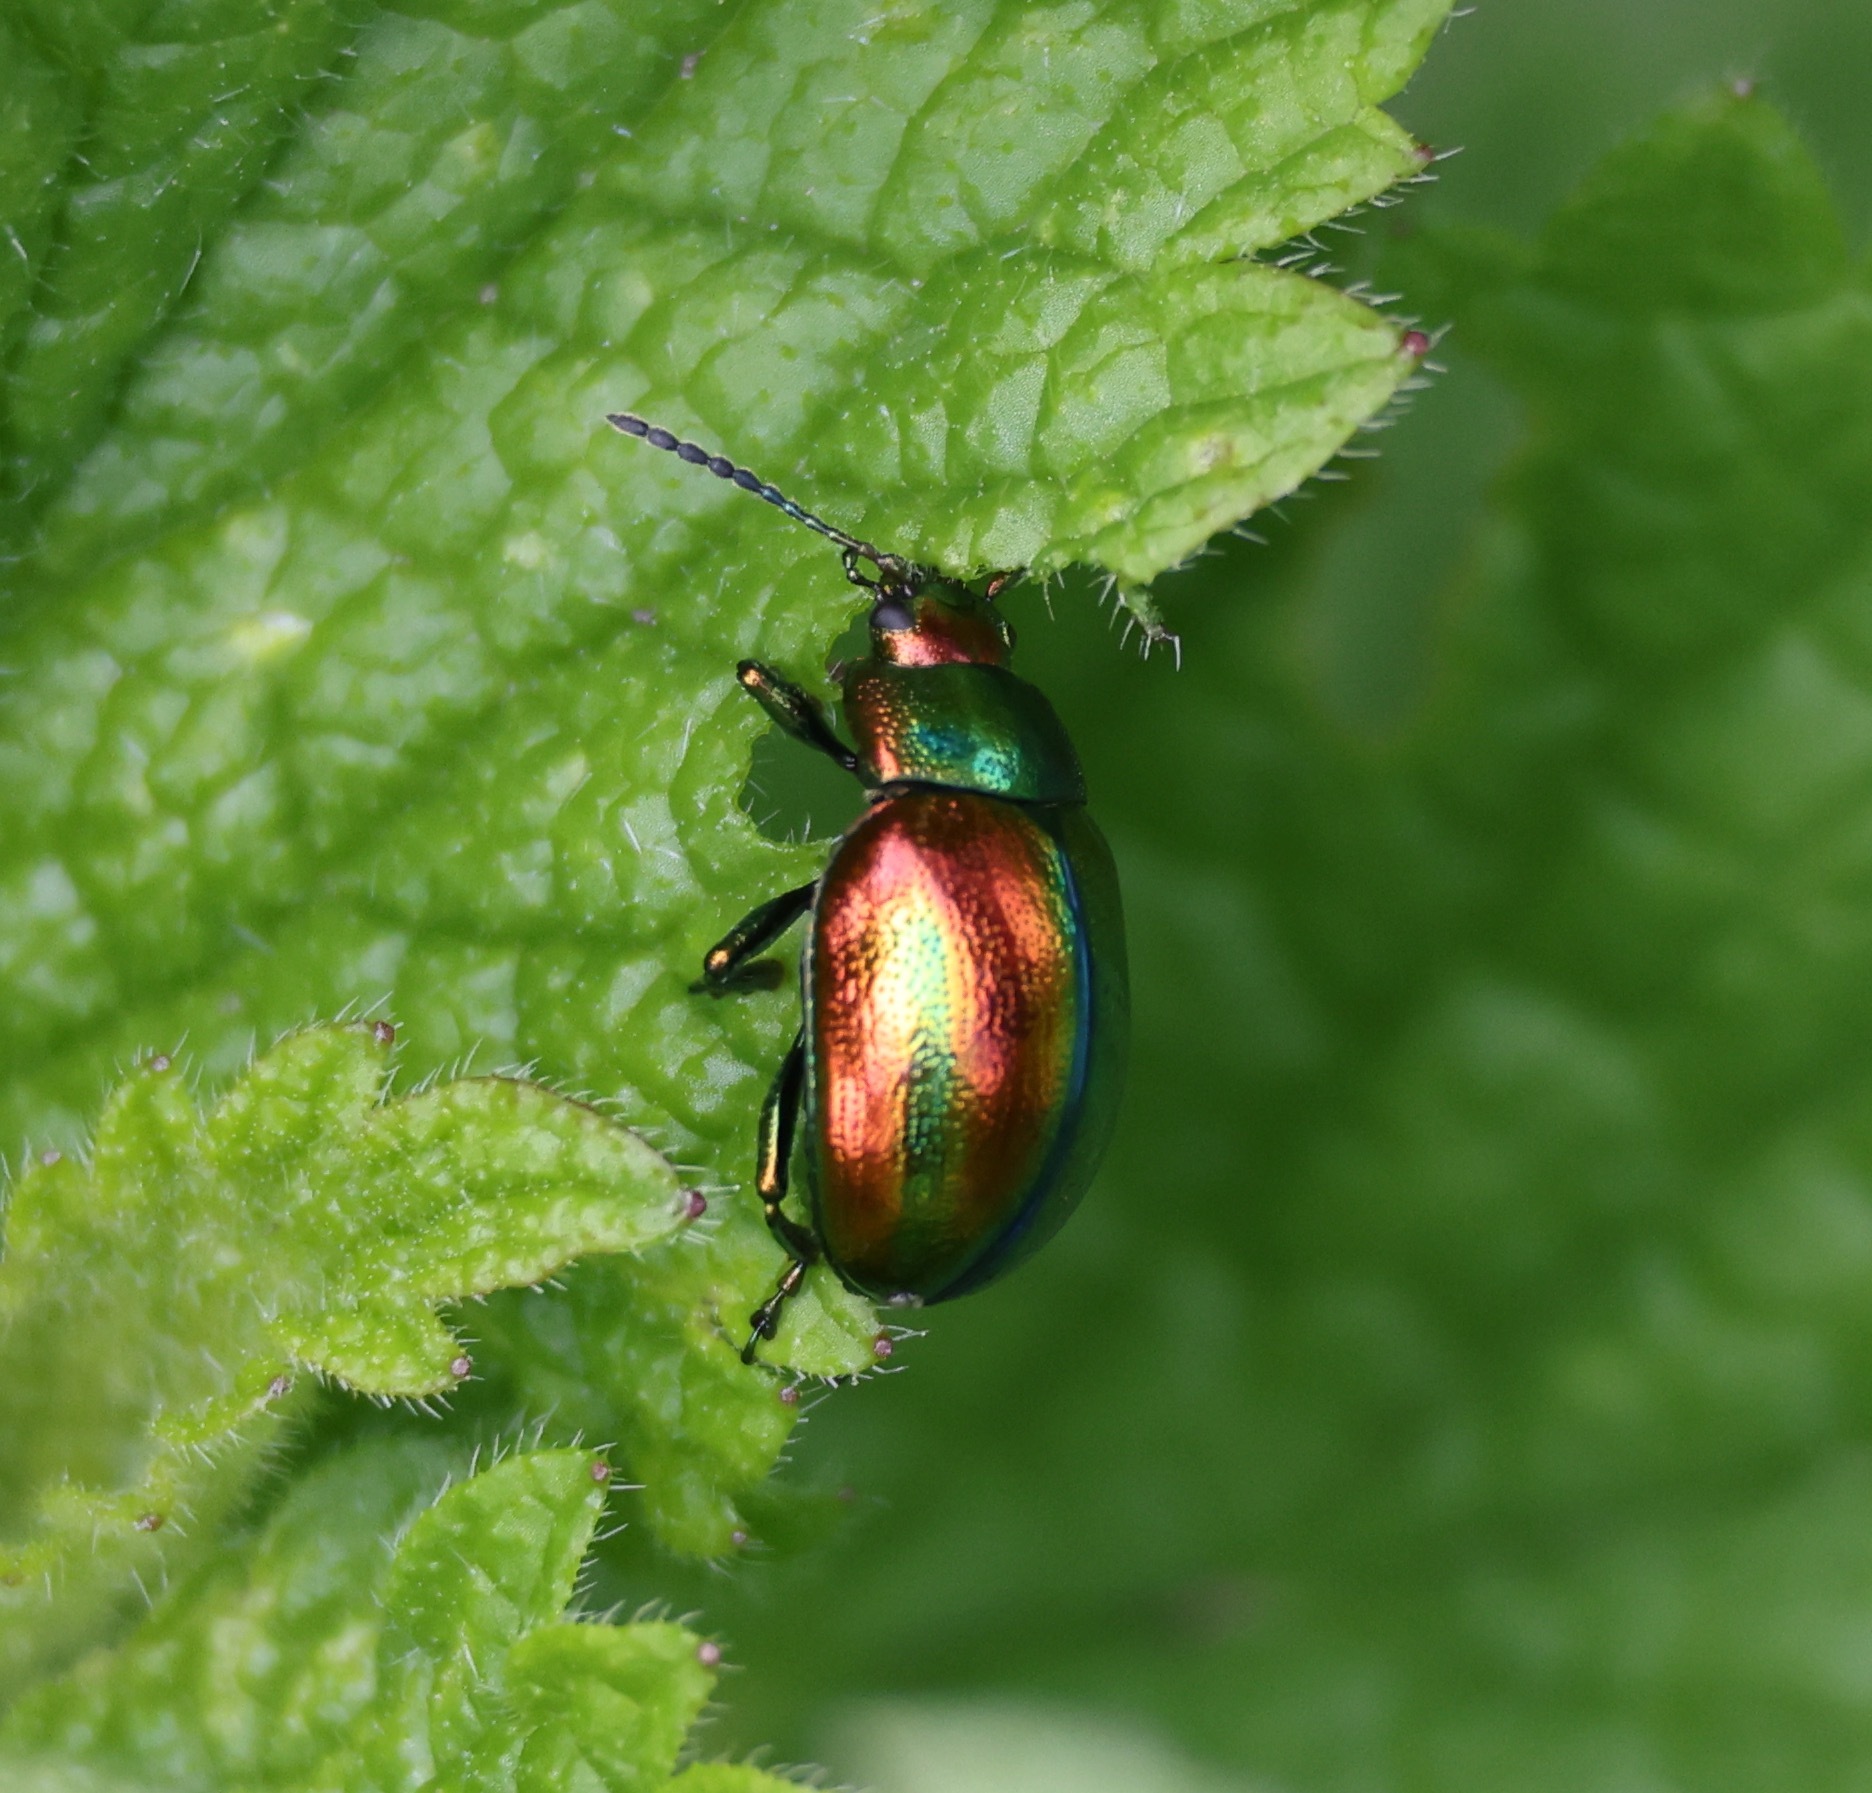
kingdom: Animalia
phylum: Arthropoda
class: Insecta
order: Coleoptera
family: Chrysomelidae
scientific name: Chrysomelidae
